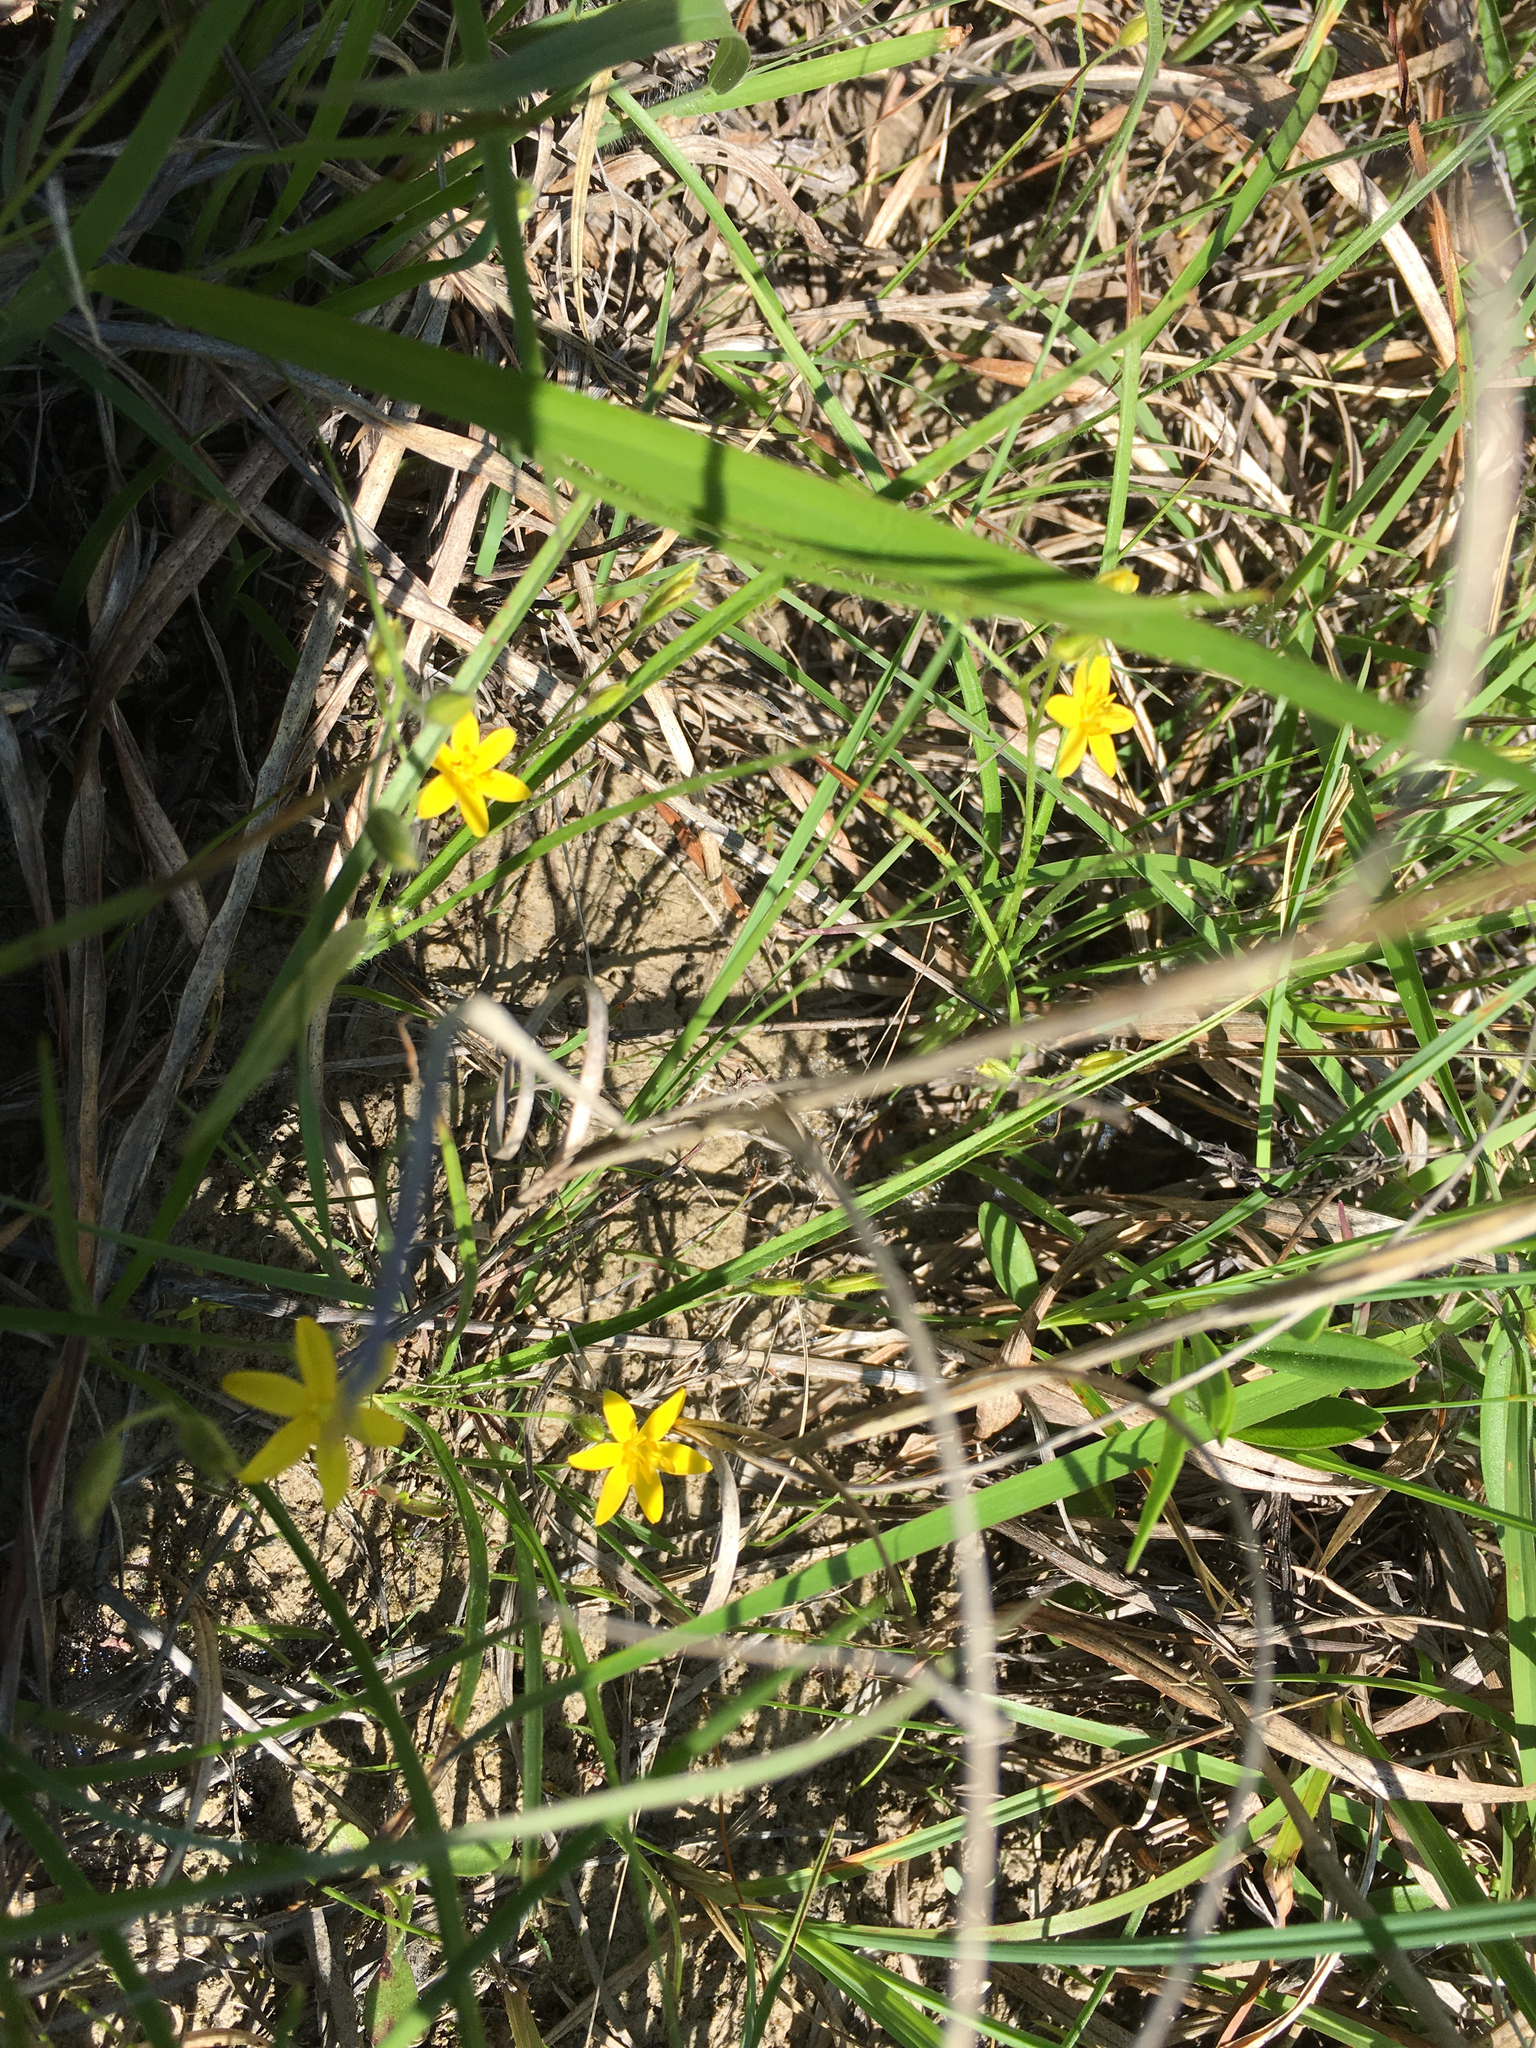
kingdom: Plantae
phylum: Tracheophyta
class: Liliopsida
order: Asparagales
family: Hypoxidaceae
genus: Hypoxis
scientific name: Hypoxis hirsuta
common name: Common goldstar
